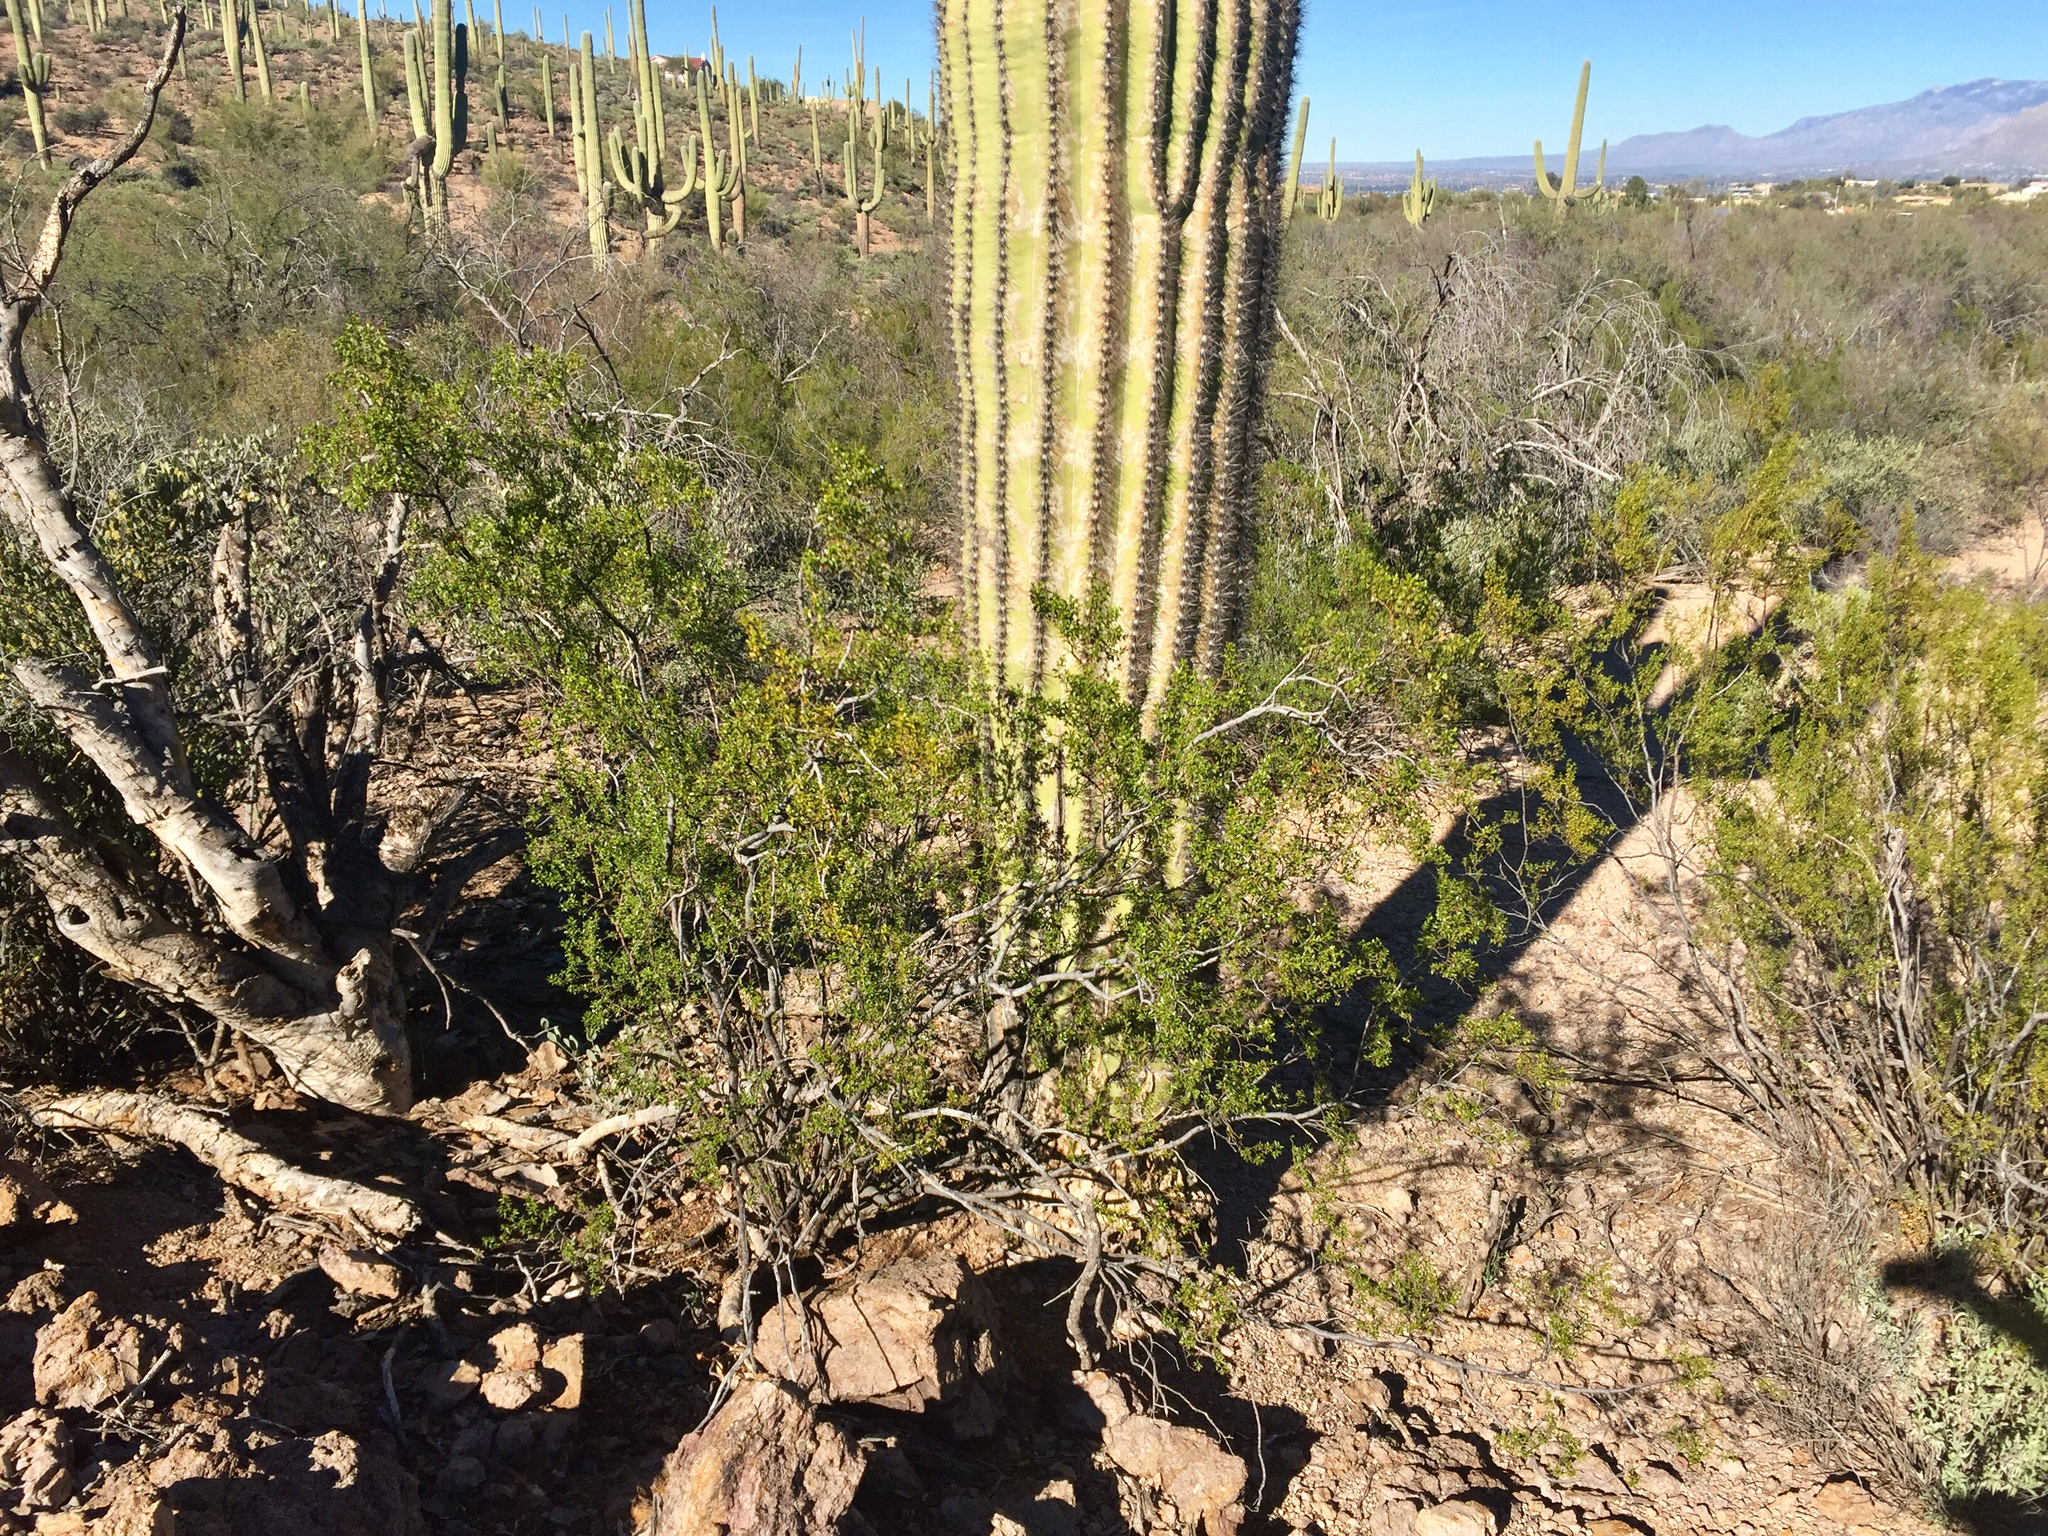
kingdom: Plantae
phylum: Tracheophyta
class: Magnoliopsida
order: Zygophyllales
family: Zygophyllaceae
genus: Larrea
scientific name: Larrea tridentata
